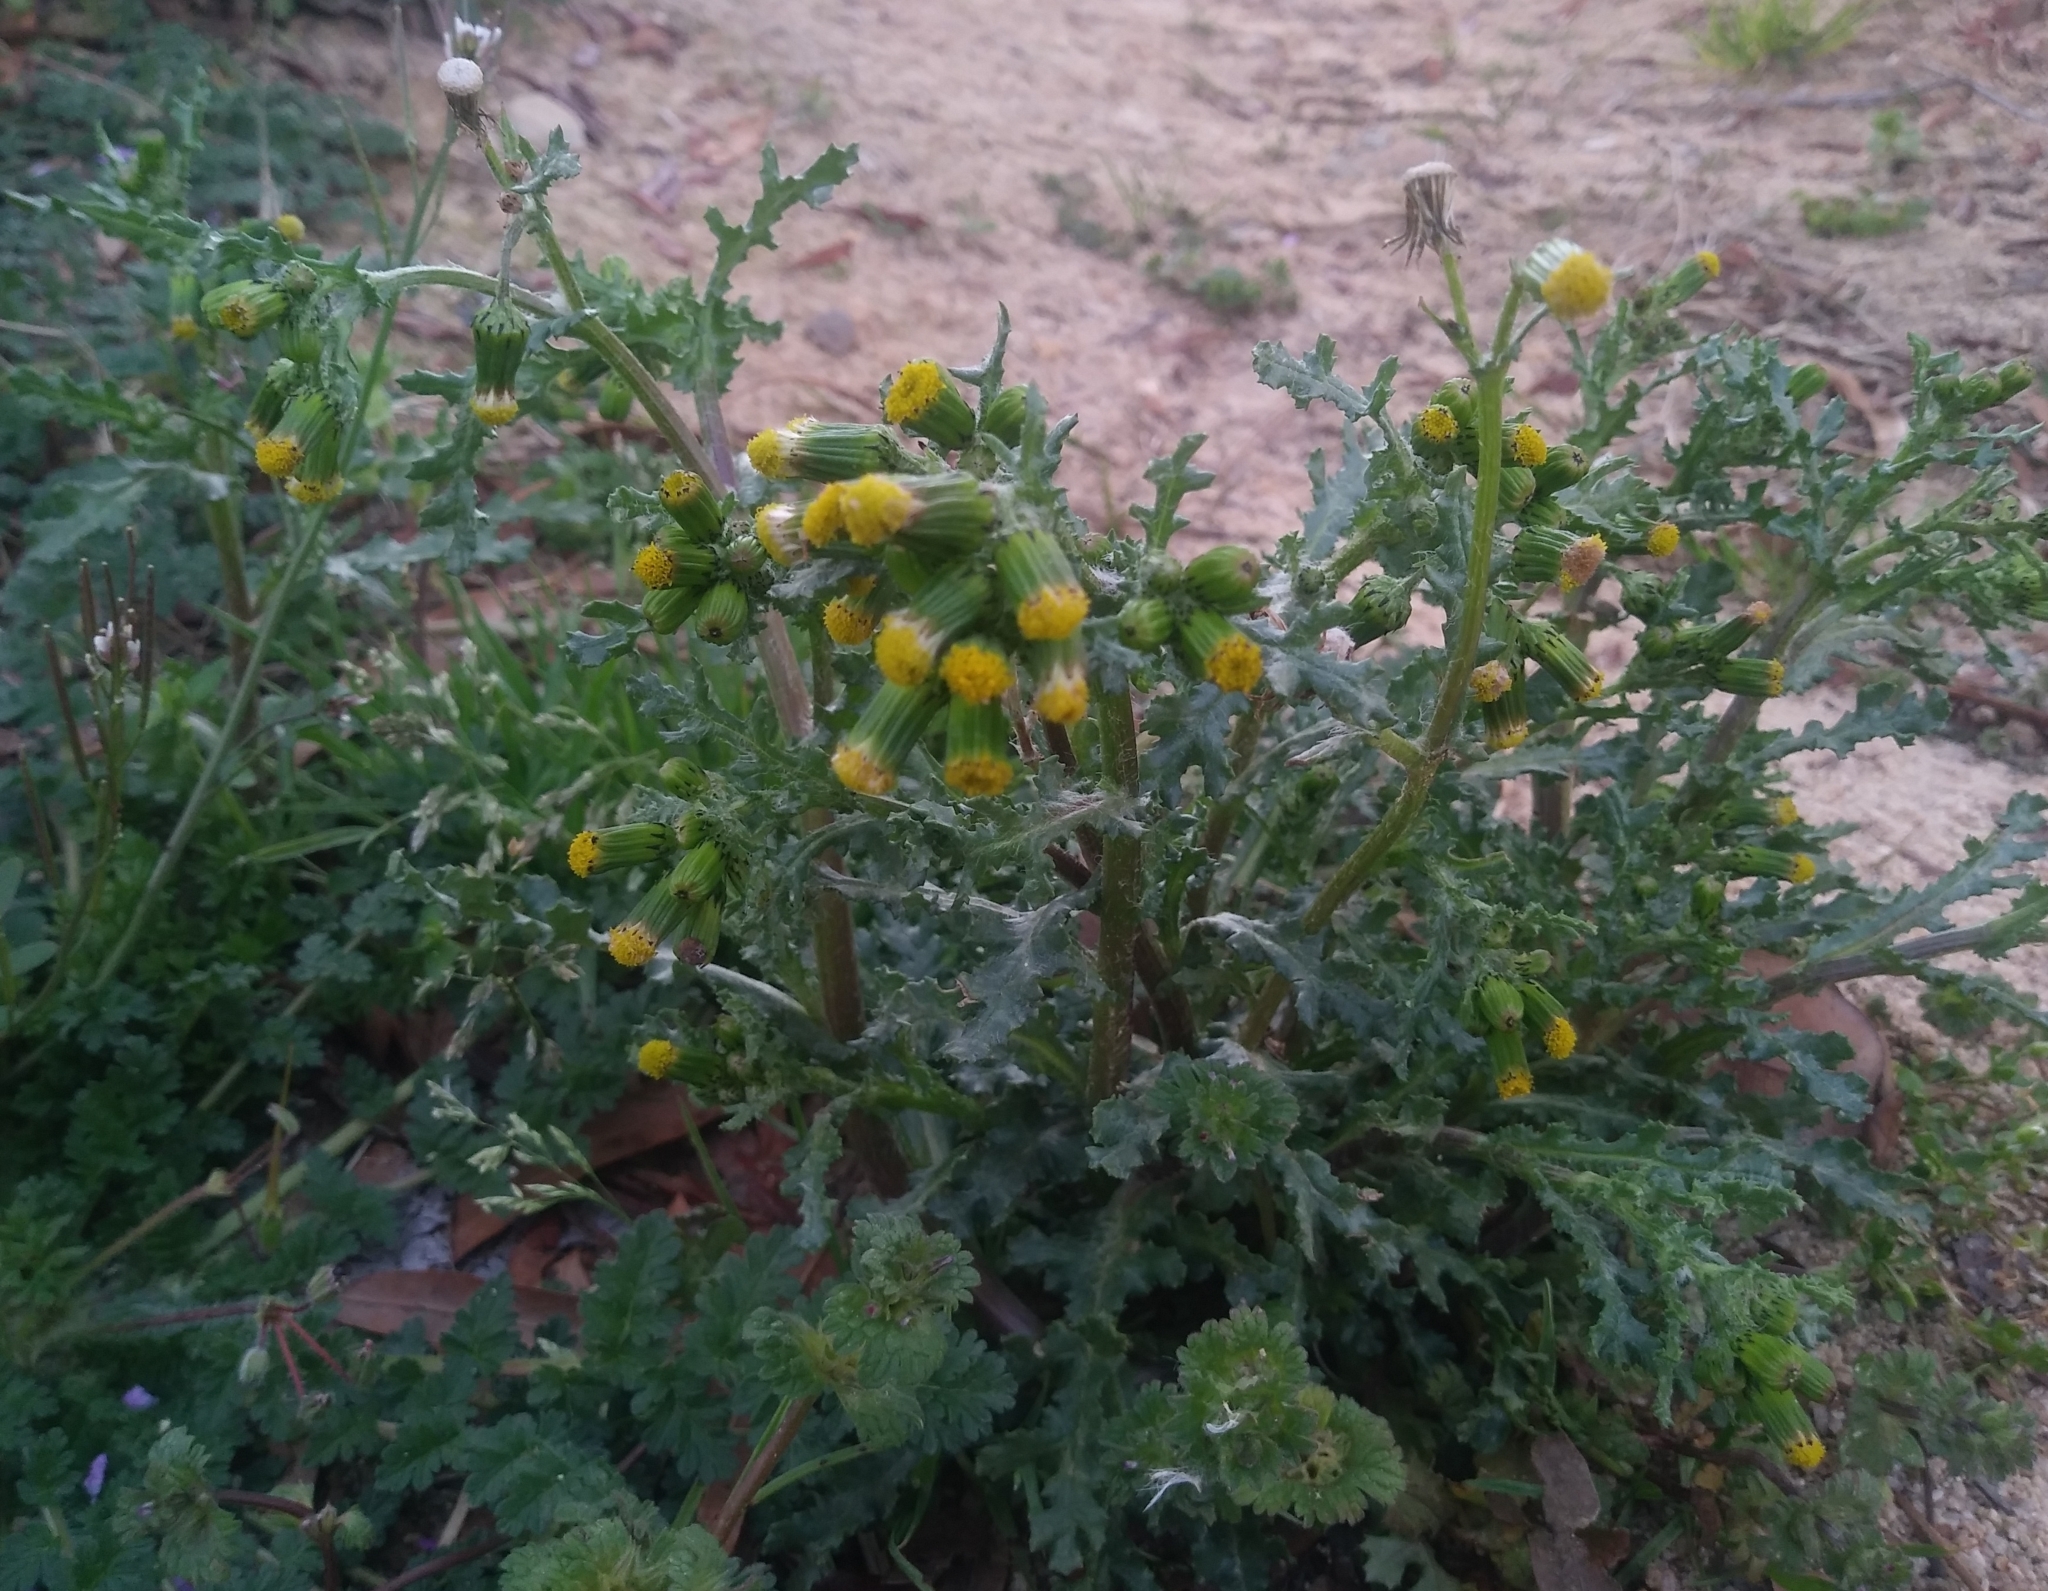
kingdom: Plantae
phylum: Tracheophyta
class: Magnoliopsida
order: Asterales
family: Asteraceae
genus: Senecio
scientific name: Senecio vulgaris
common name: Old-man-in-the-spring
